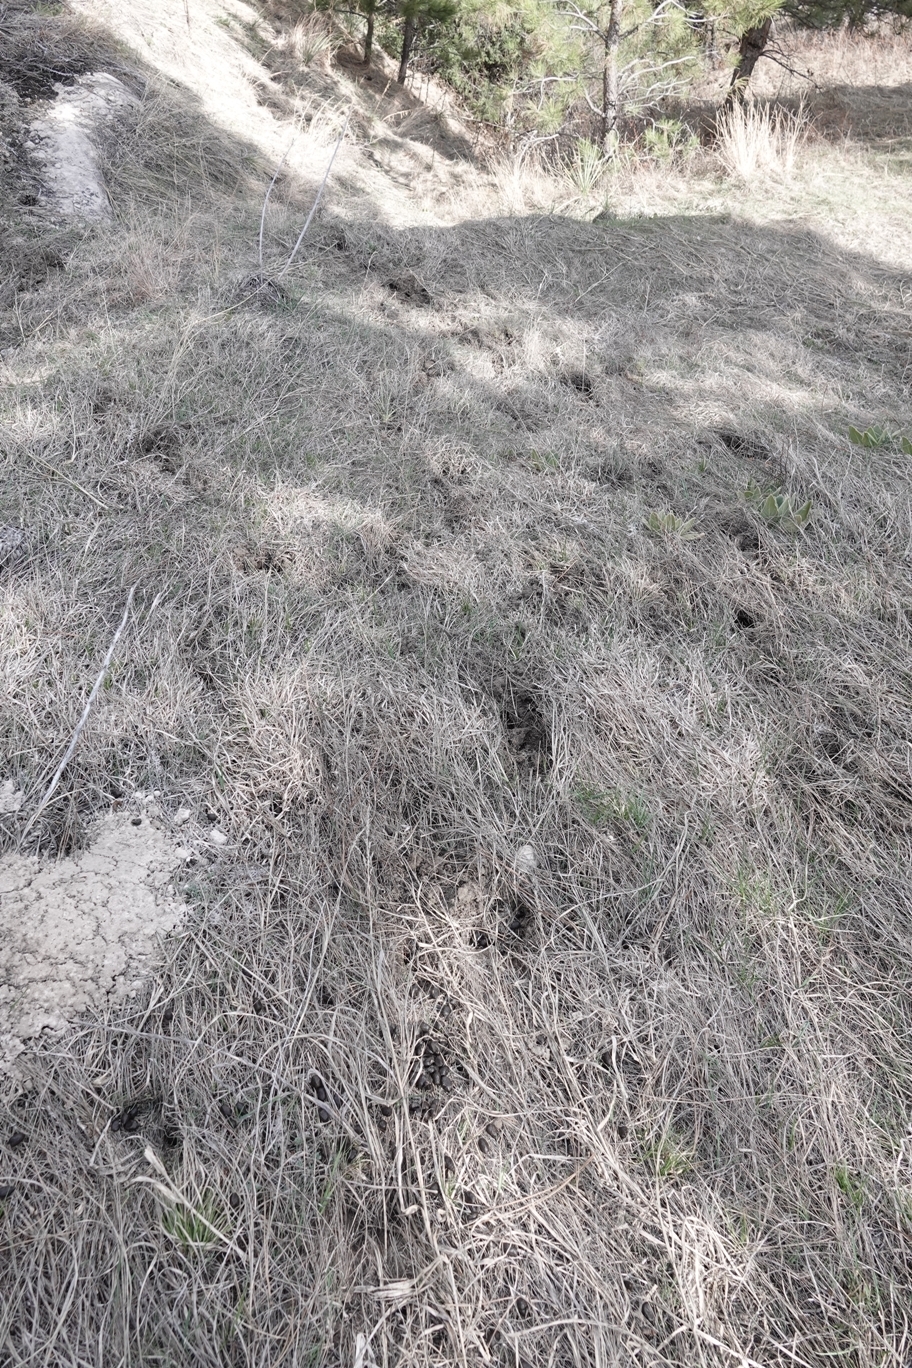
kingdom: Animalia
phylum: Chordata
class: Mammalia
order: Artiodactyla
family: Cervidae
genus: Alces
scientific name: Alces alces
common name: Moose
